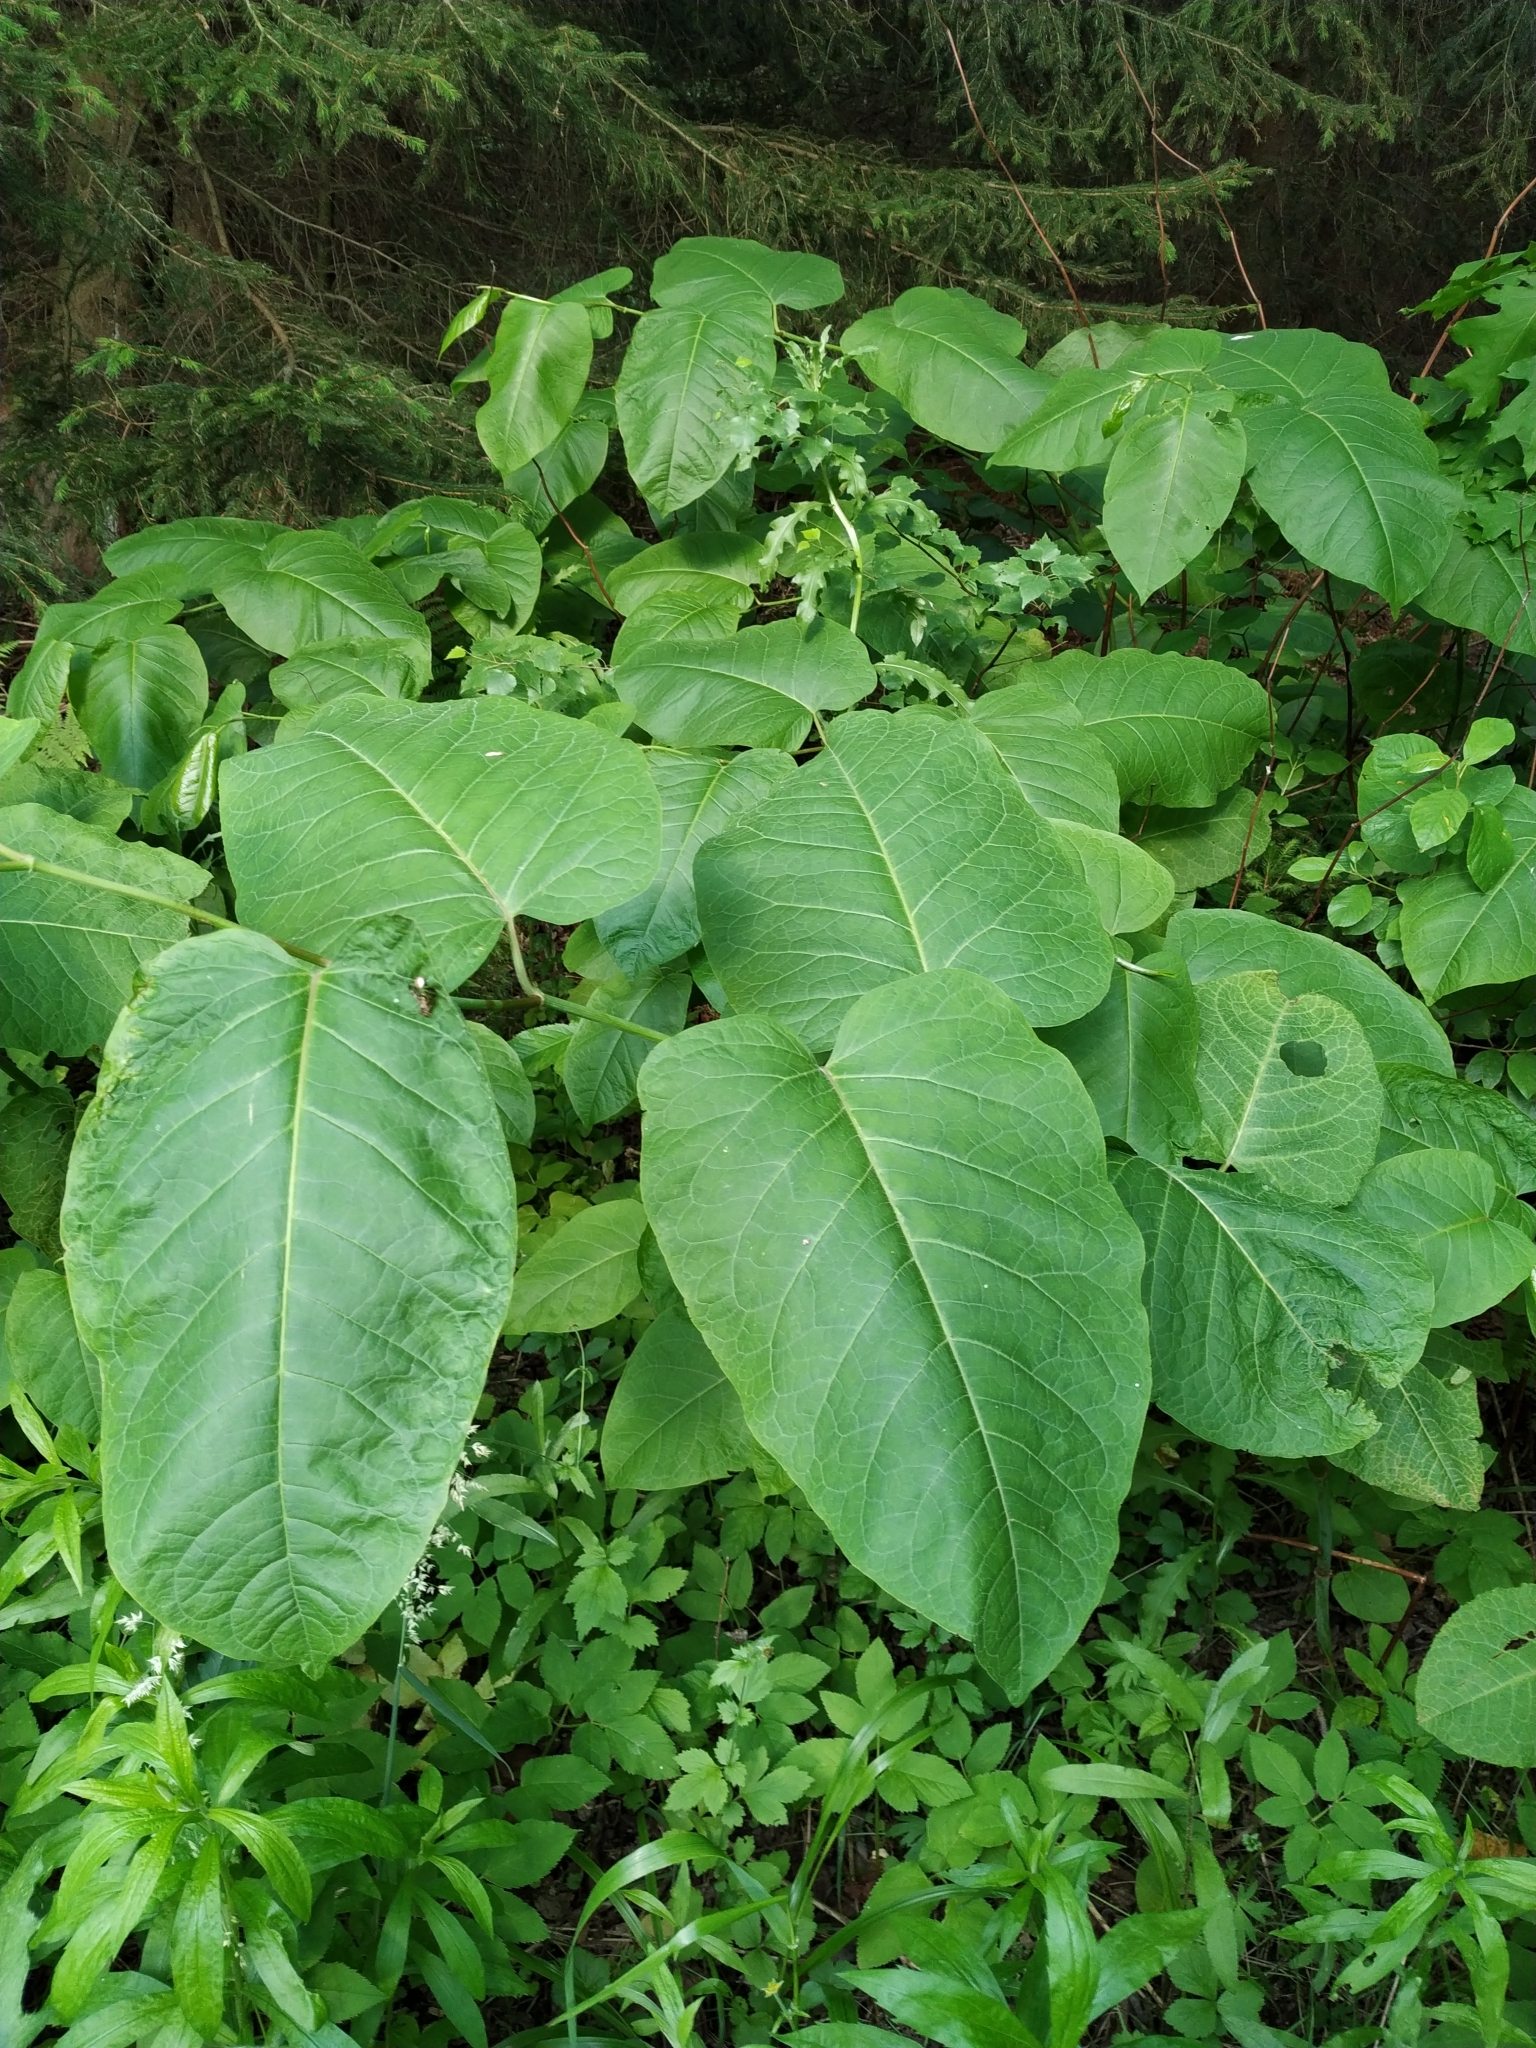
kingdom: Plantae
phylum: Tracheophyta
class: Magnoliopsida
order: Caryophyllales
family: Polygonaceae
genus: Reynoutria
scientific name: Reynoutria sachalinensis
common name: Giant knotweed
